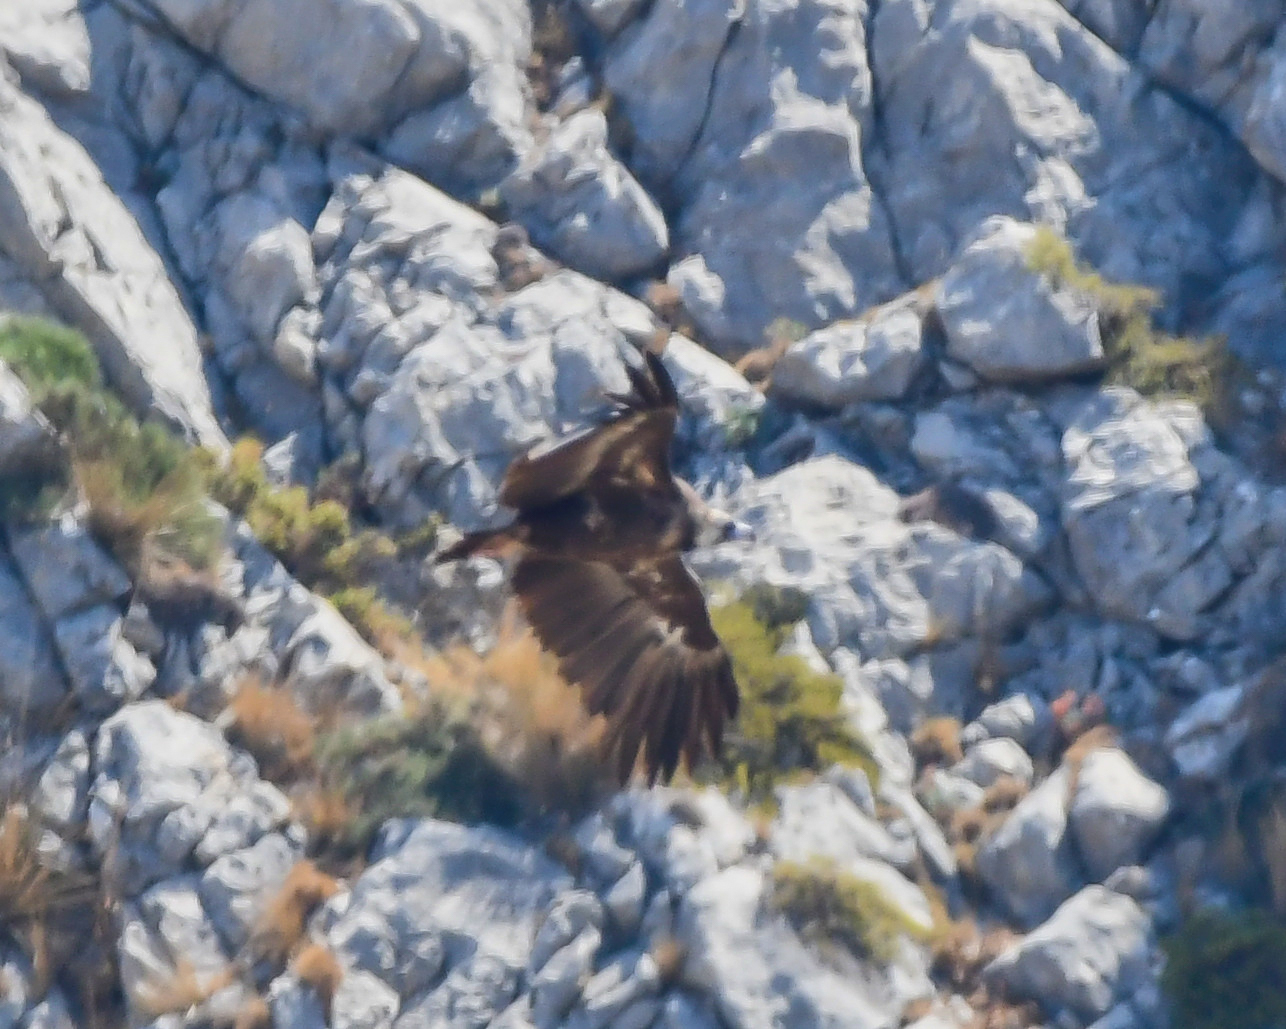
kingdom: Animalia
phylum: Chordata
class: Aves
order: Accipitriformes
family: Accipitridae
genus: Aegypius
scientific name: Aegypius monachus
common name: Cinereous vulture
